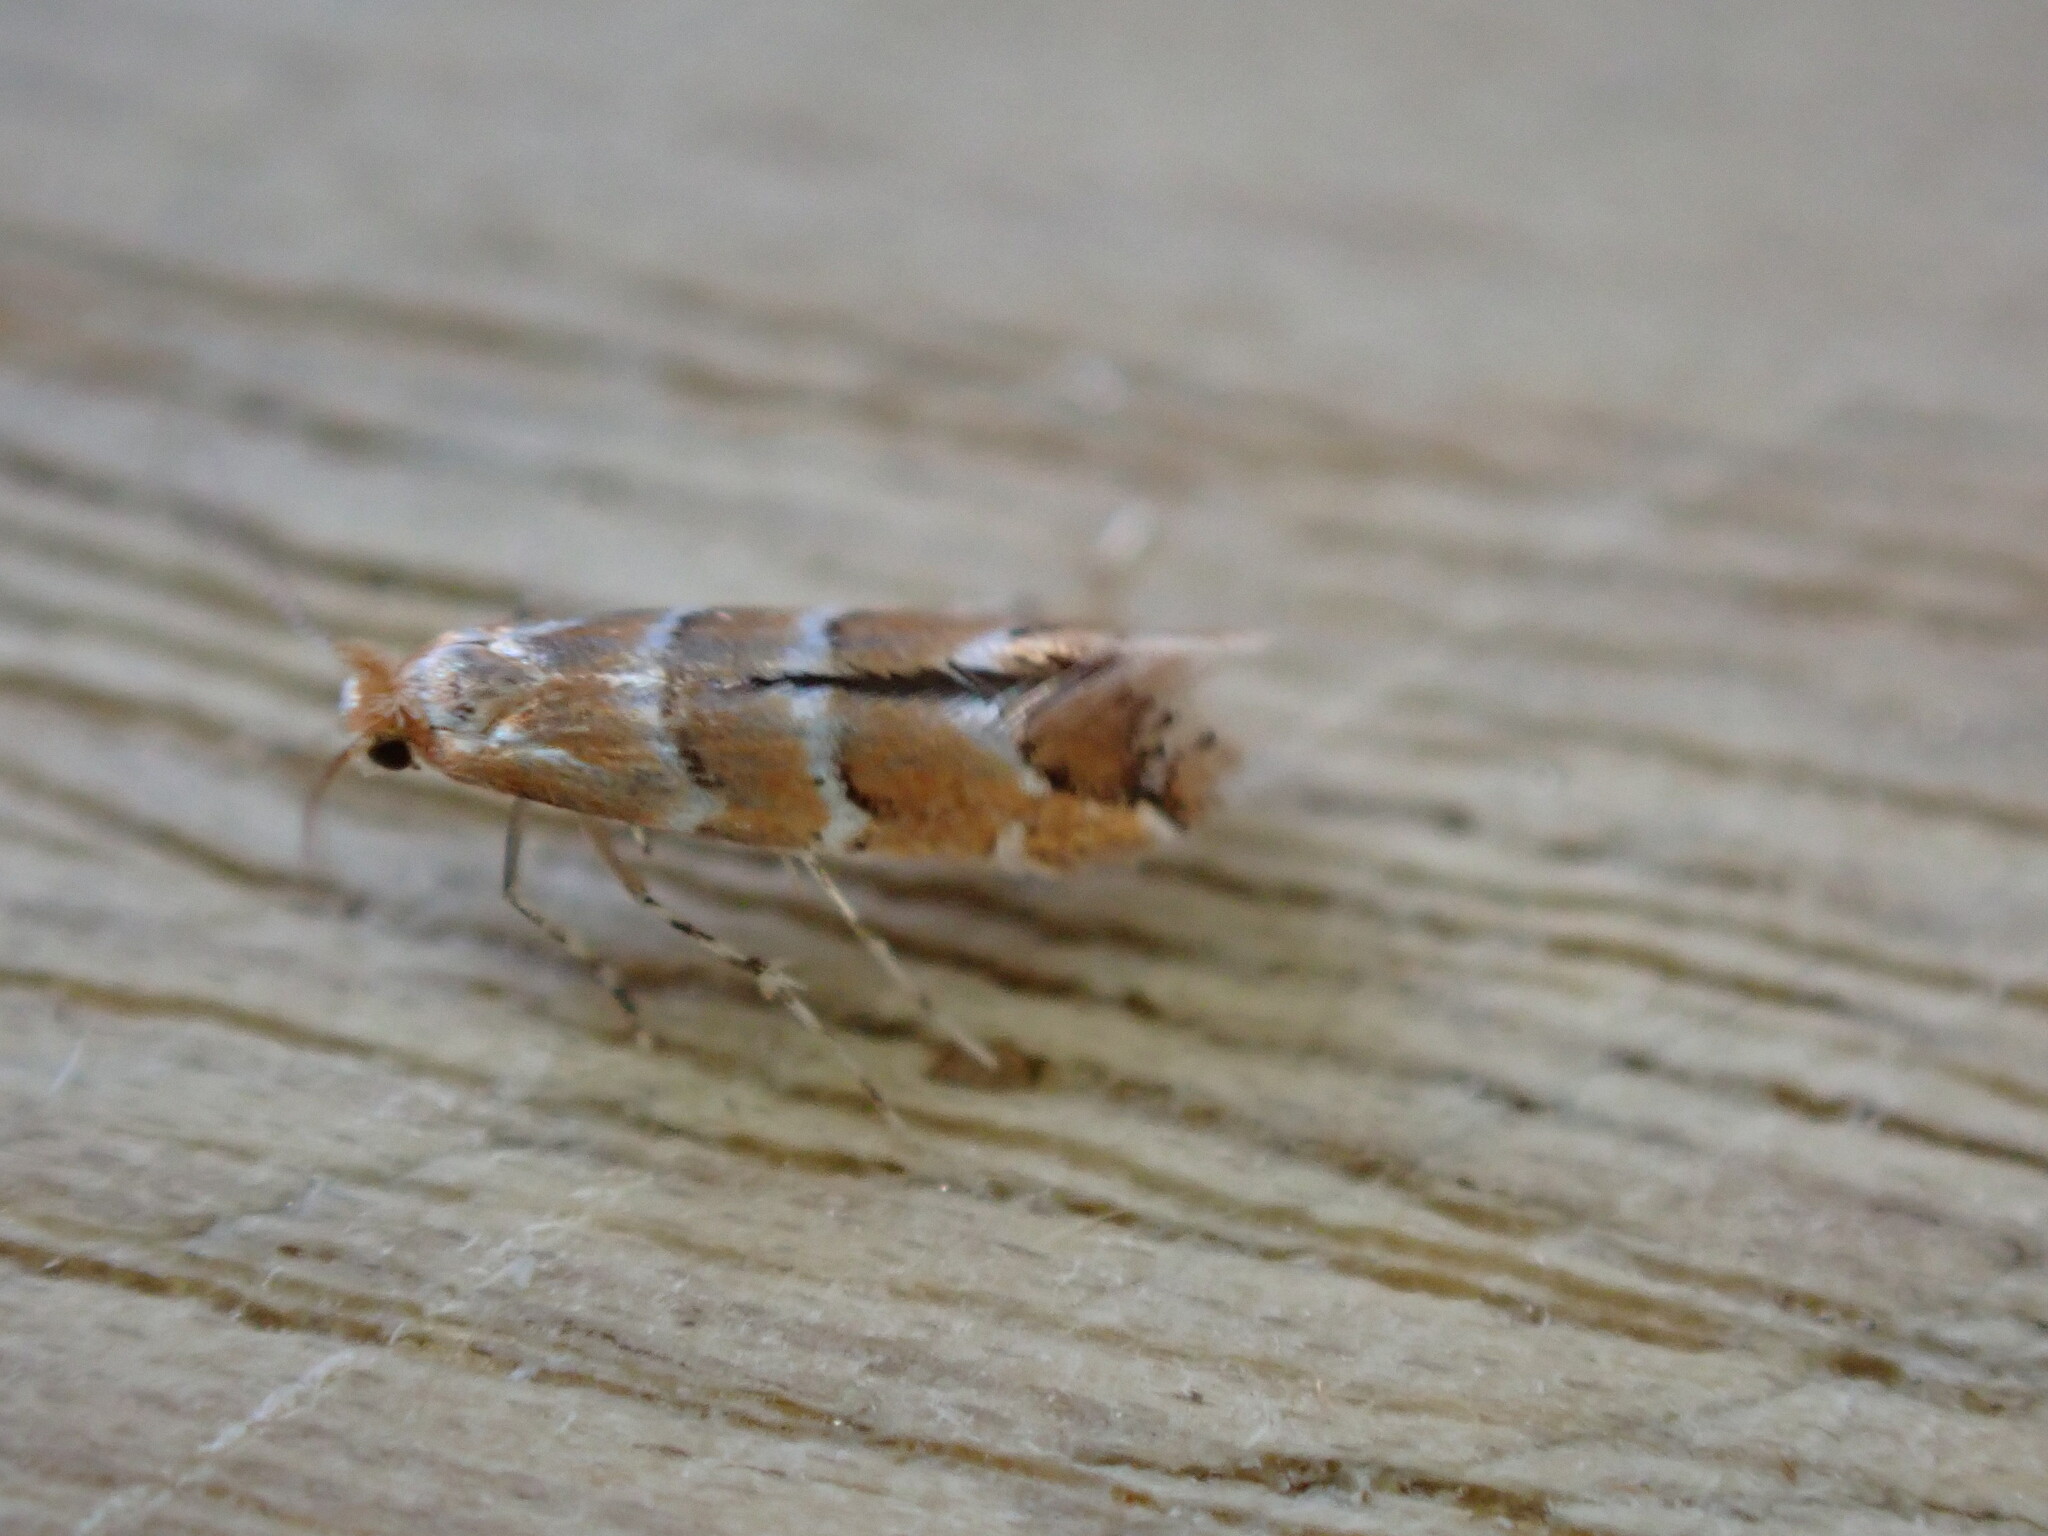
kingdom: Animalia
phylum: Arthropoda
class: Insecta
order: Lepidoptera
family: Gracillariidae
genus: Cameraria
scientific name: Cameraria ohridella
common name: Horse-chestnut leaf-miner
